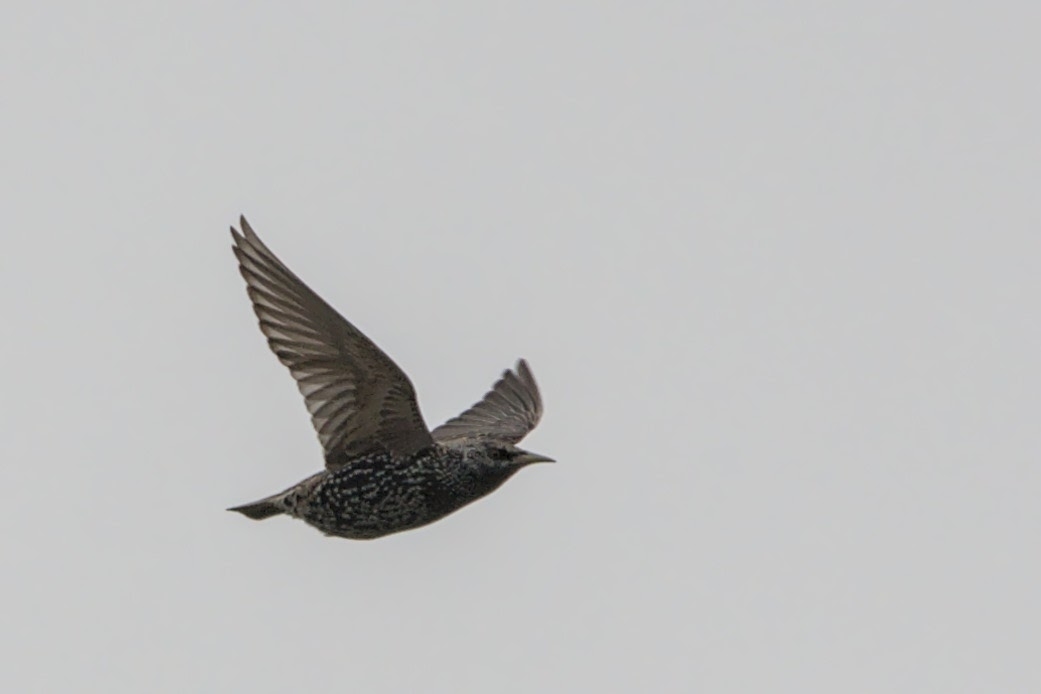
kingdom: Animalia
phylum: Chordata
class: Aves
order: Passeriformes
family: Sturnidae
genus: Sturnus
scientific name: Sturnus vulgaris
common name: Common starling
